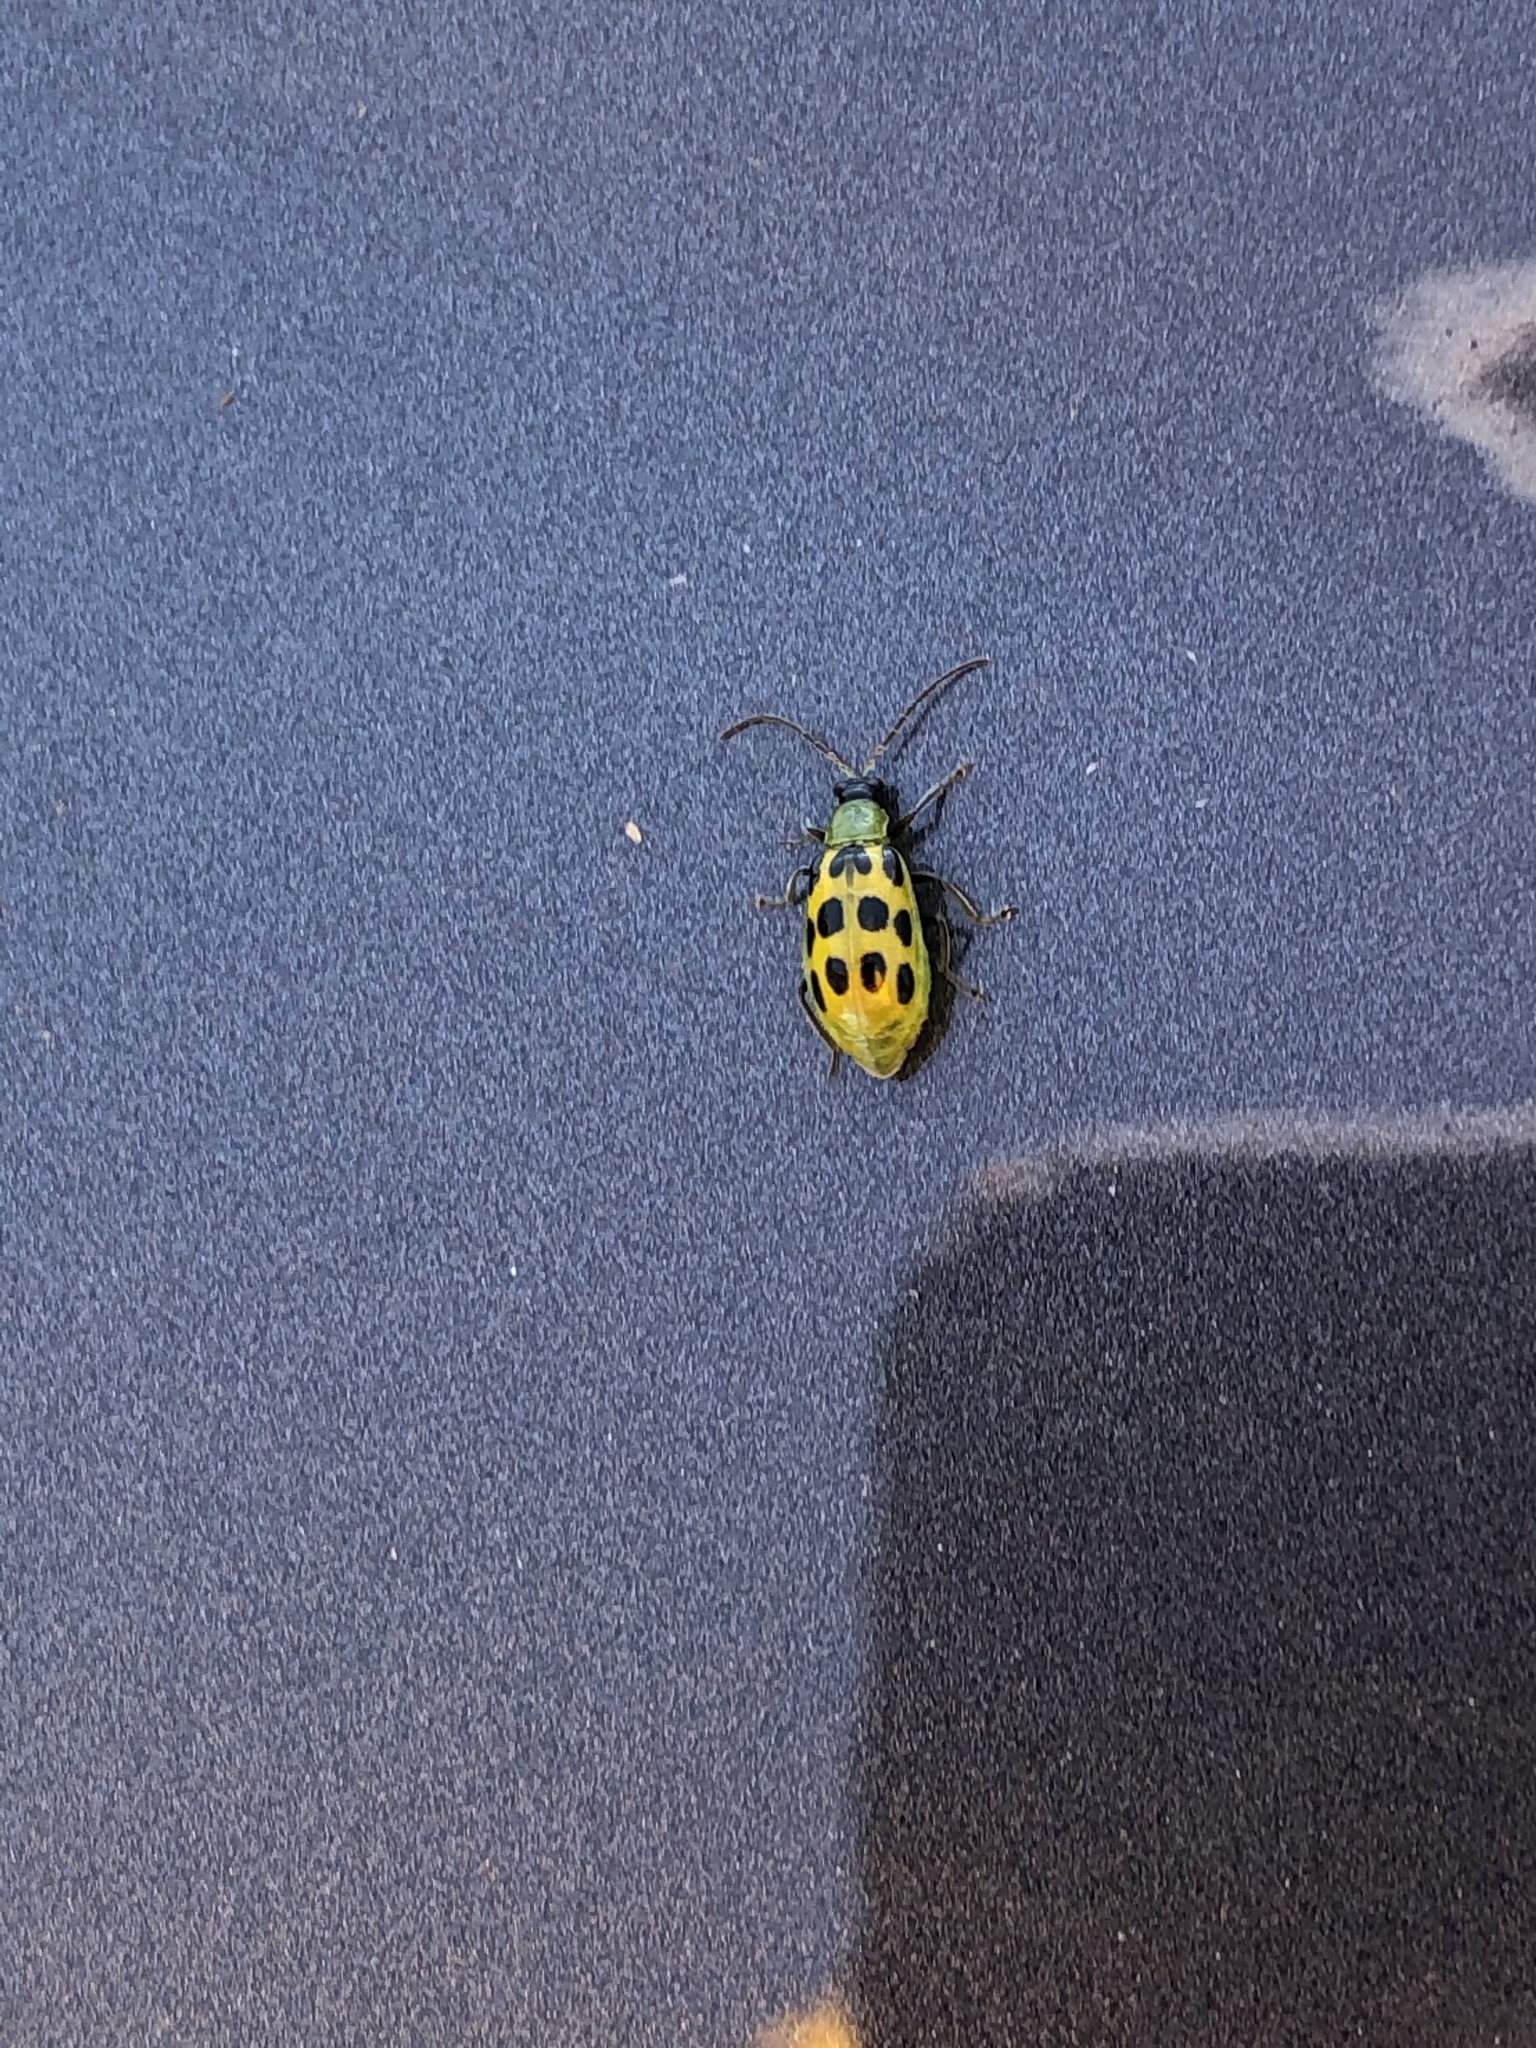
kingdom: Animalia
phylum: Arthropoda
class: Insecta
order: Coleoptera
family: Chrysomelidae
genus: Diabrotica
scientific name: Diabrotica undecimpunctata
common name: Spotted cucumber beetle
